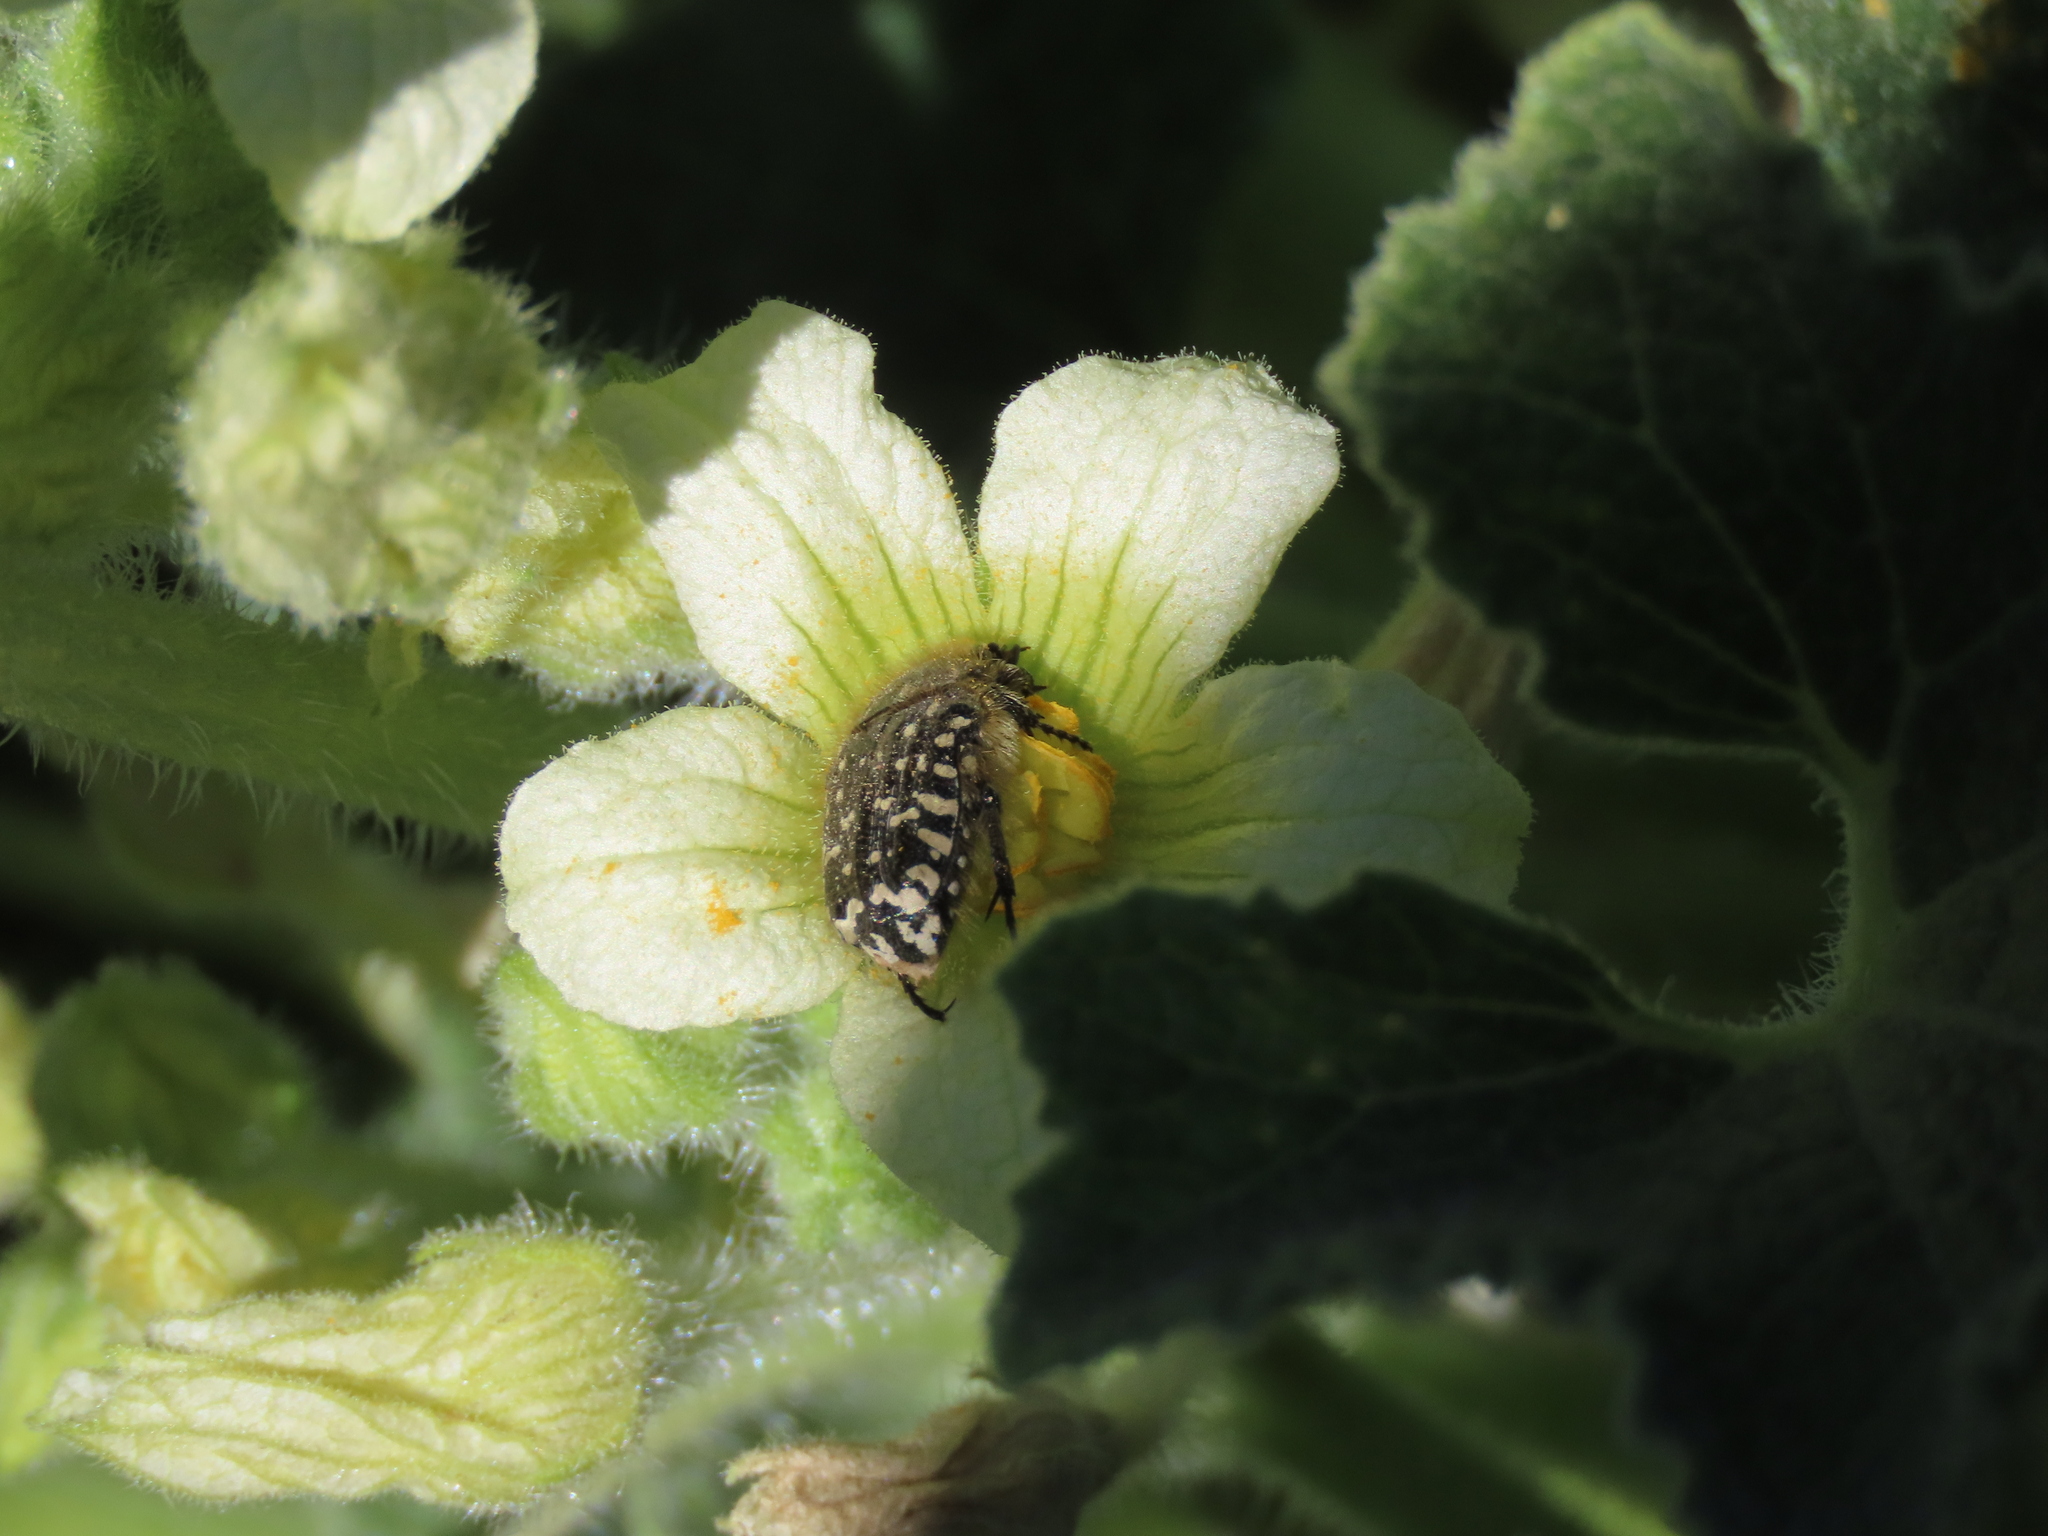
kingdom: Animalia
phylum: Arthropoda
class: Insecta
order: Coleoptera
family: Scarabaeidae
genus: Oxythyrea
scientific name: Oxythyrea funesta
